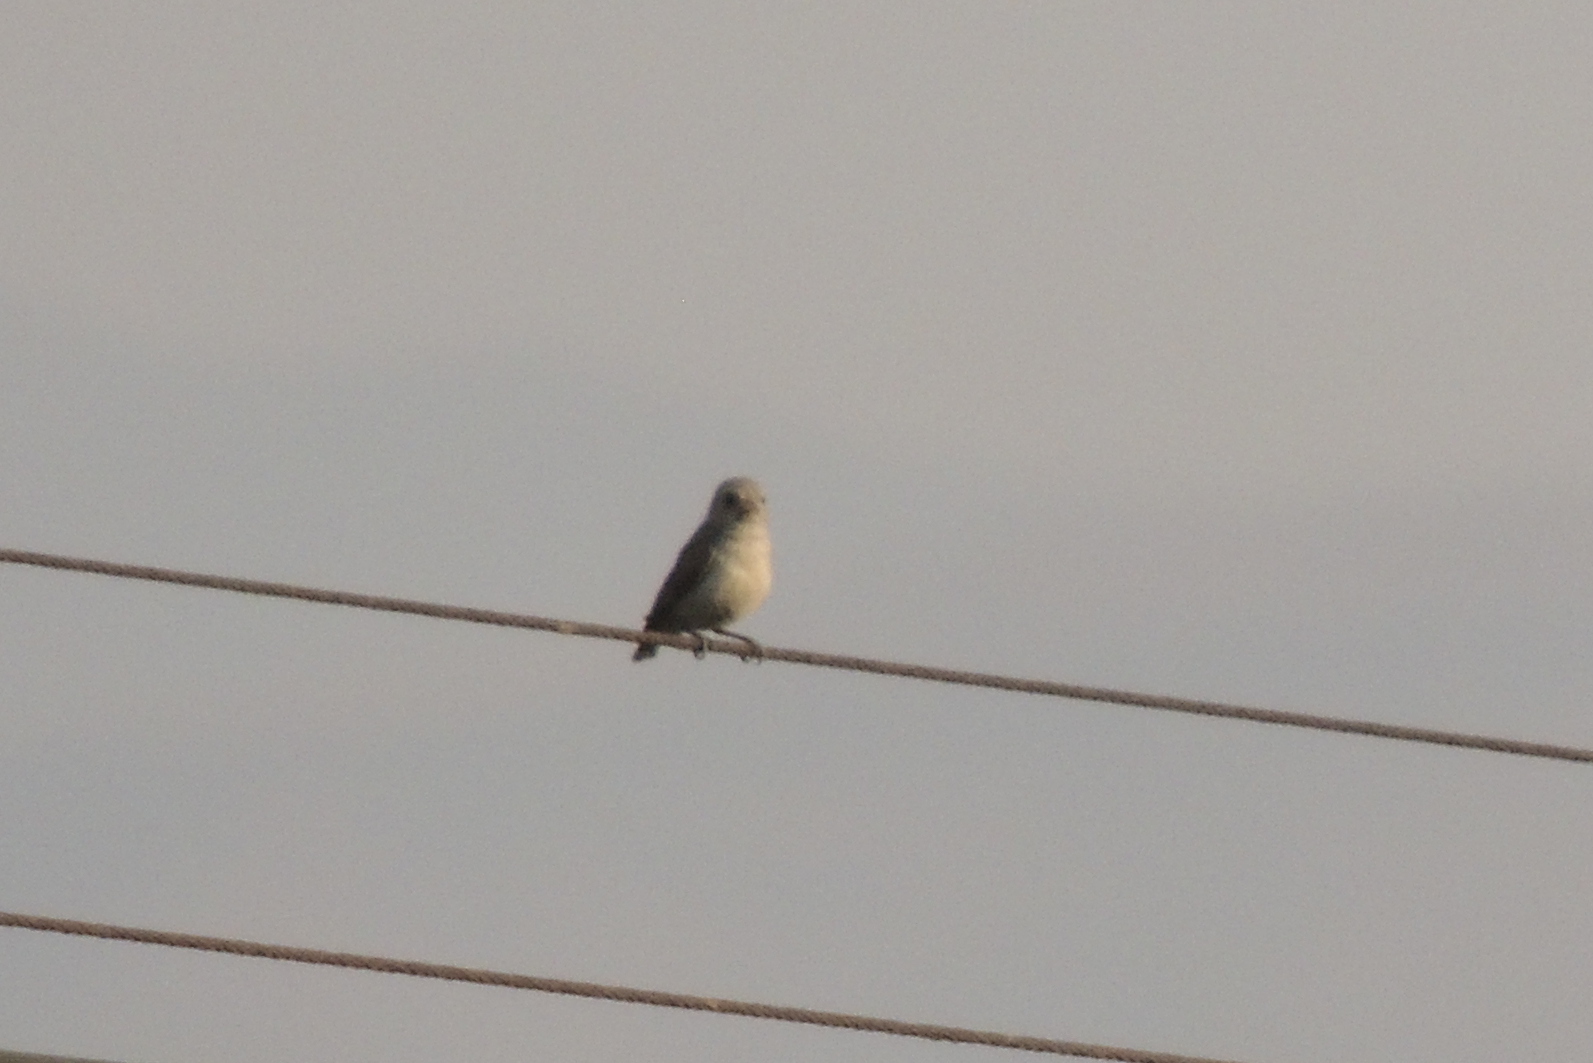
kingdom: Animalia
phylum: Chordata
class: Aves
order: Passeriformes
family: Dicaeidae
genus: Dicaeum
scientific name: Dicaeum erythrorhynchos
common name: Pale-billed flowerpecker
